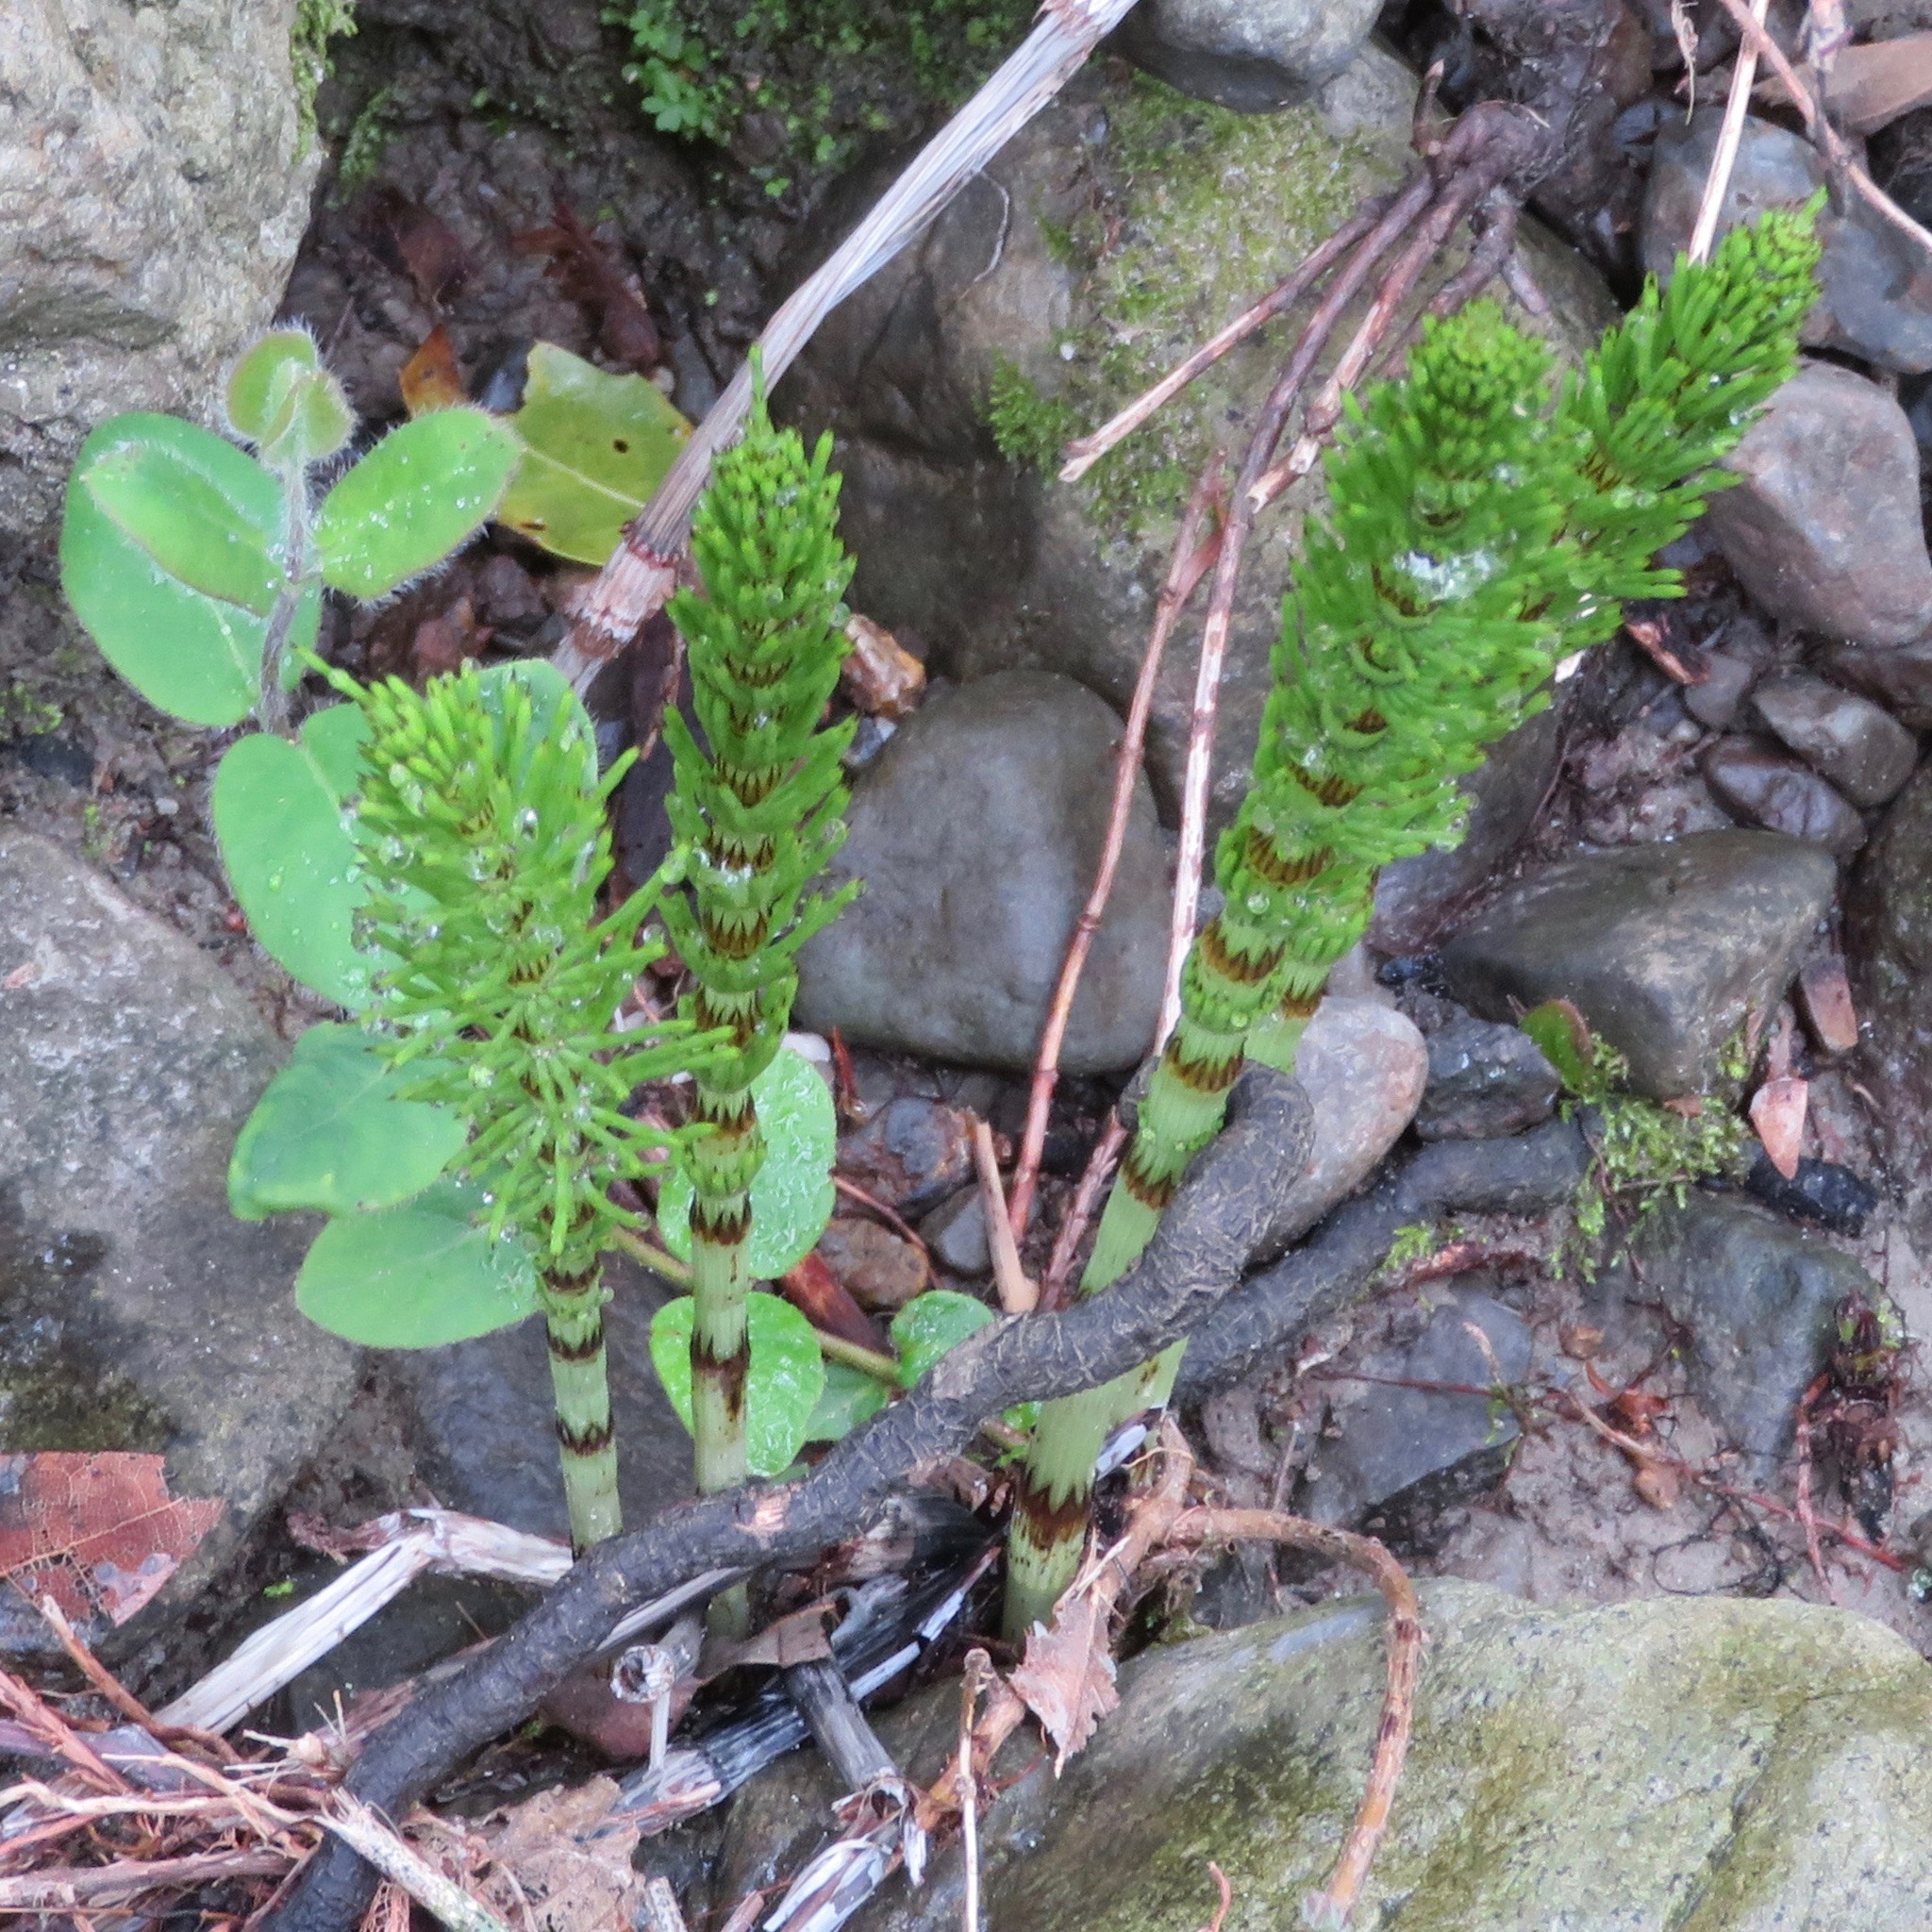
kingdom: Plantae
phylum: Tracheophyta
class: Polypodiopsida
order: Equisetales
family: Equisetaceae
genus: Equisetum
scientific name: Equisetum braunii
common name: Braun's horsetail
